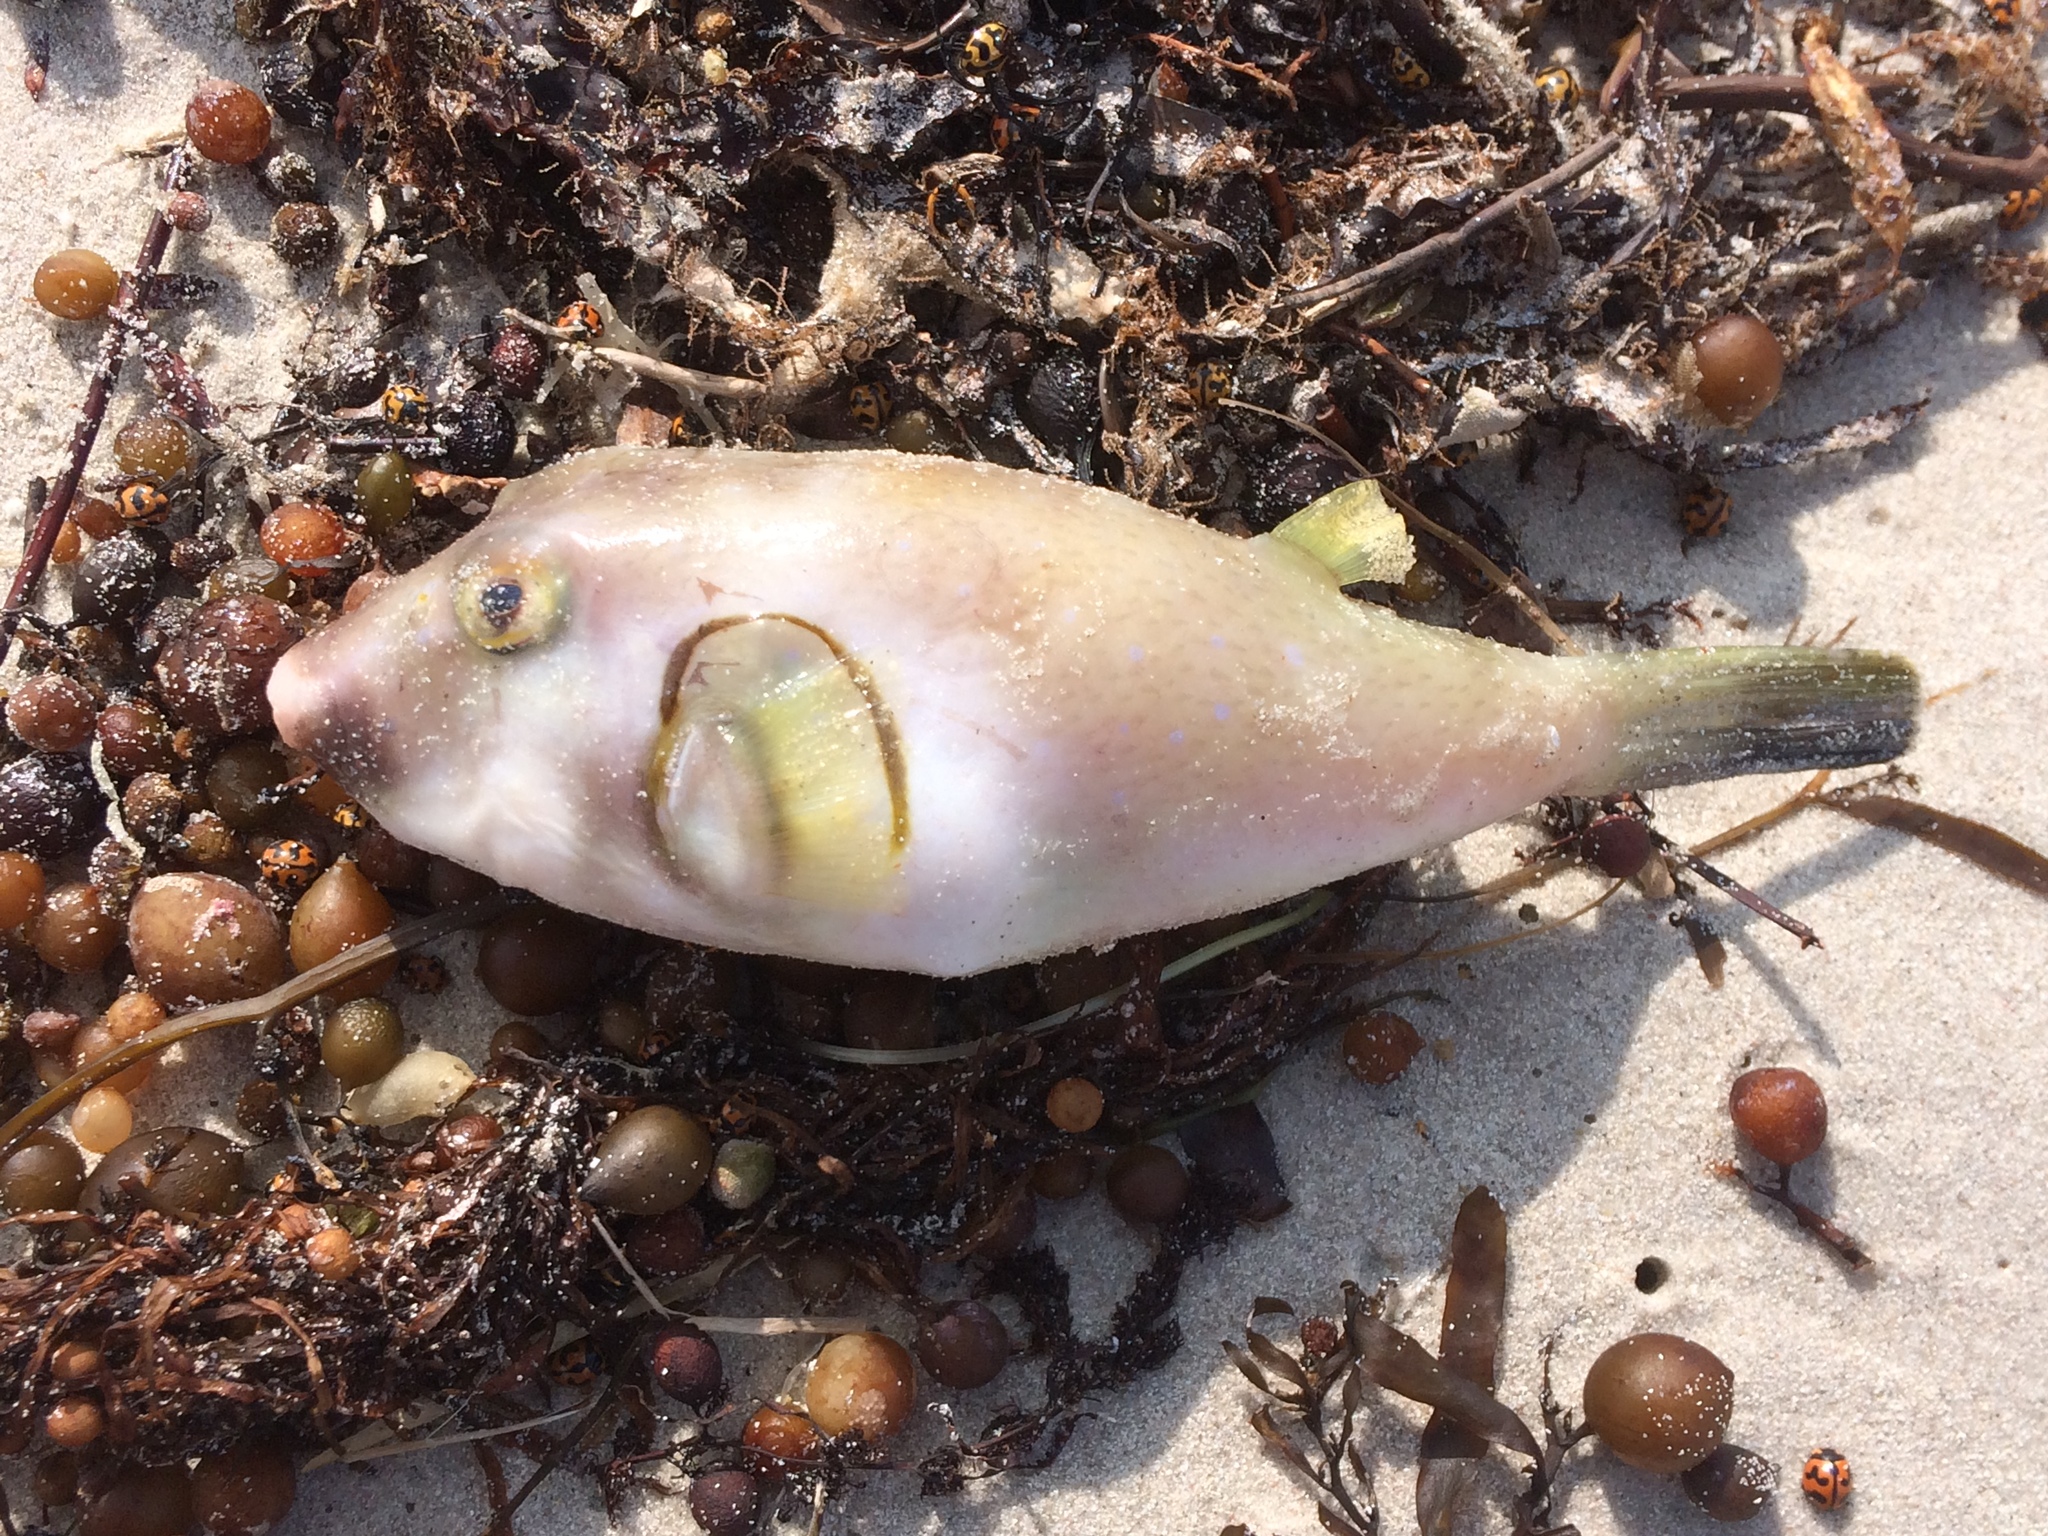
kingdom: Animalia
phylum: Chordata
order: Tetraodontiformes
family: Tetraodontidae
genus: Omegophora
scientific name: Omegophora armilla
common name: Ringed pufferfish
